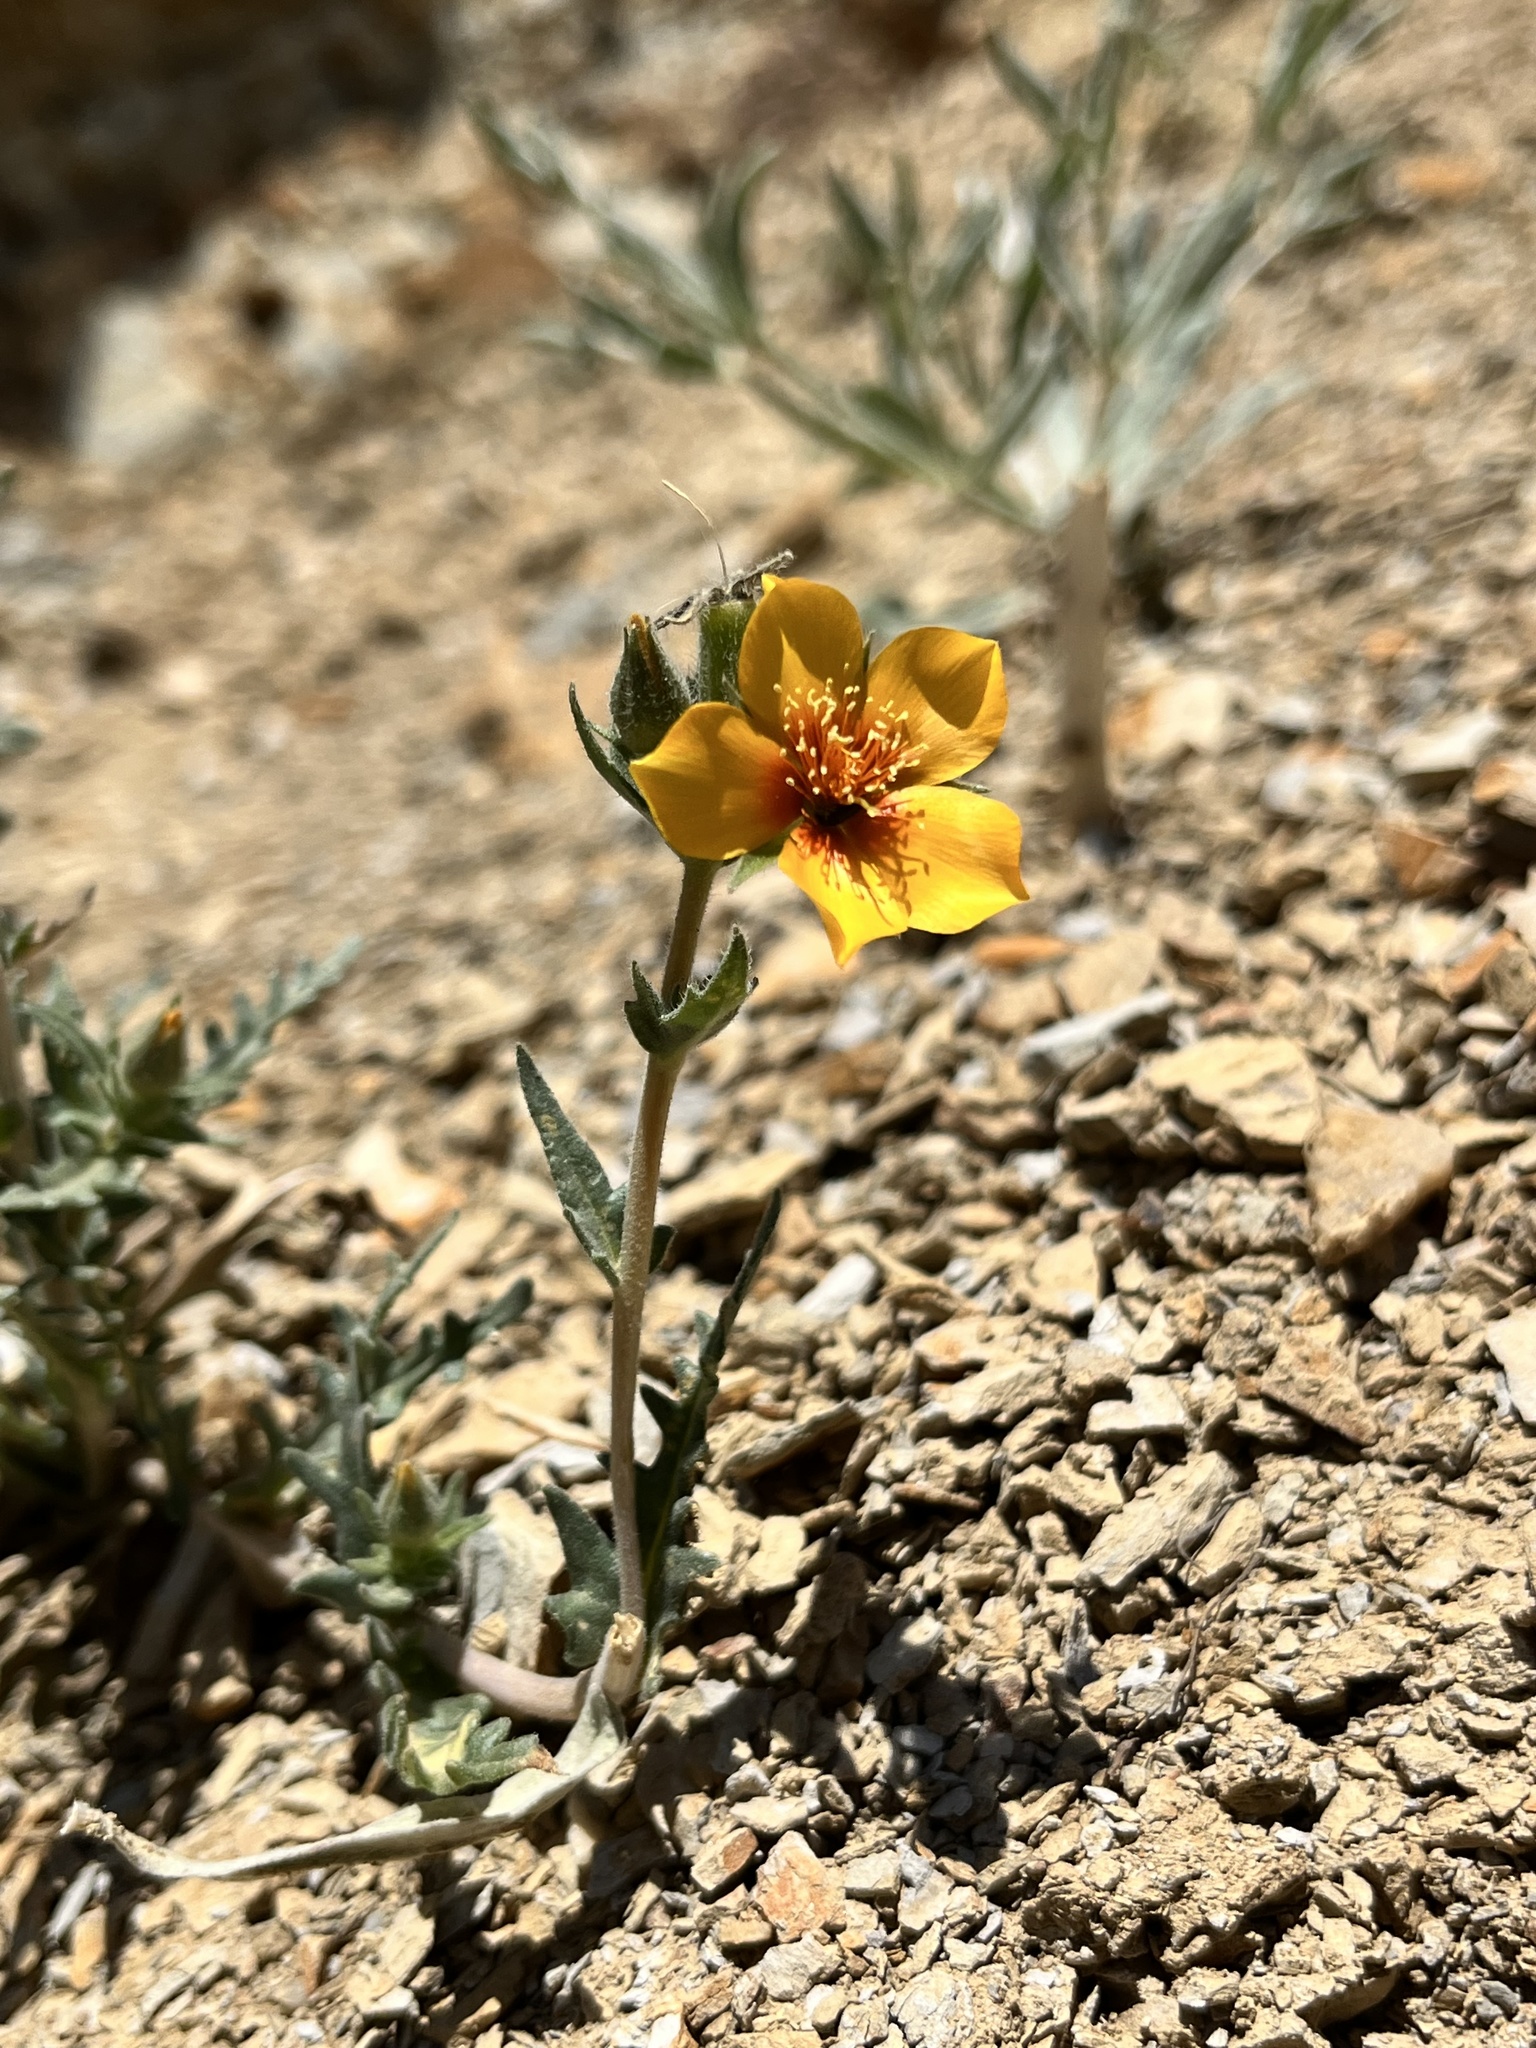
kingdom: Plantae
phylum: Tracheophyta
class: Magnoliopsida
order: Cornales
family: Loasaceae
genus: Mentzelia
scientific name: Mentzelia pectinata
